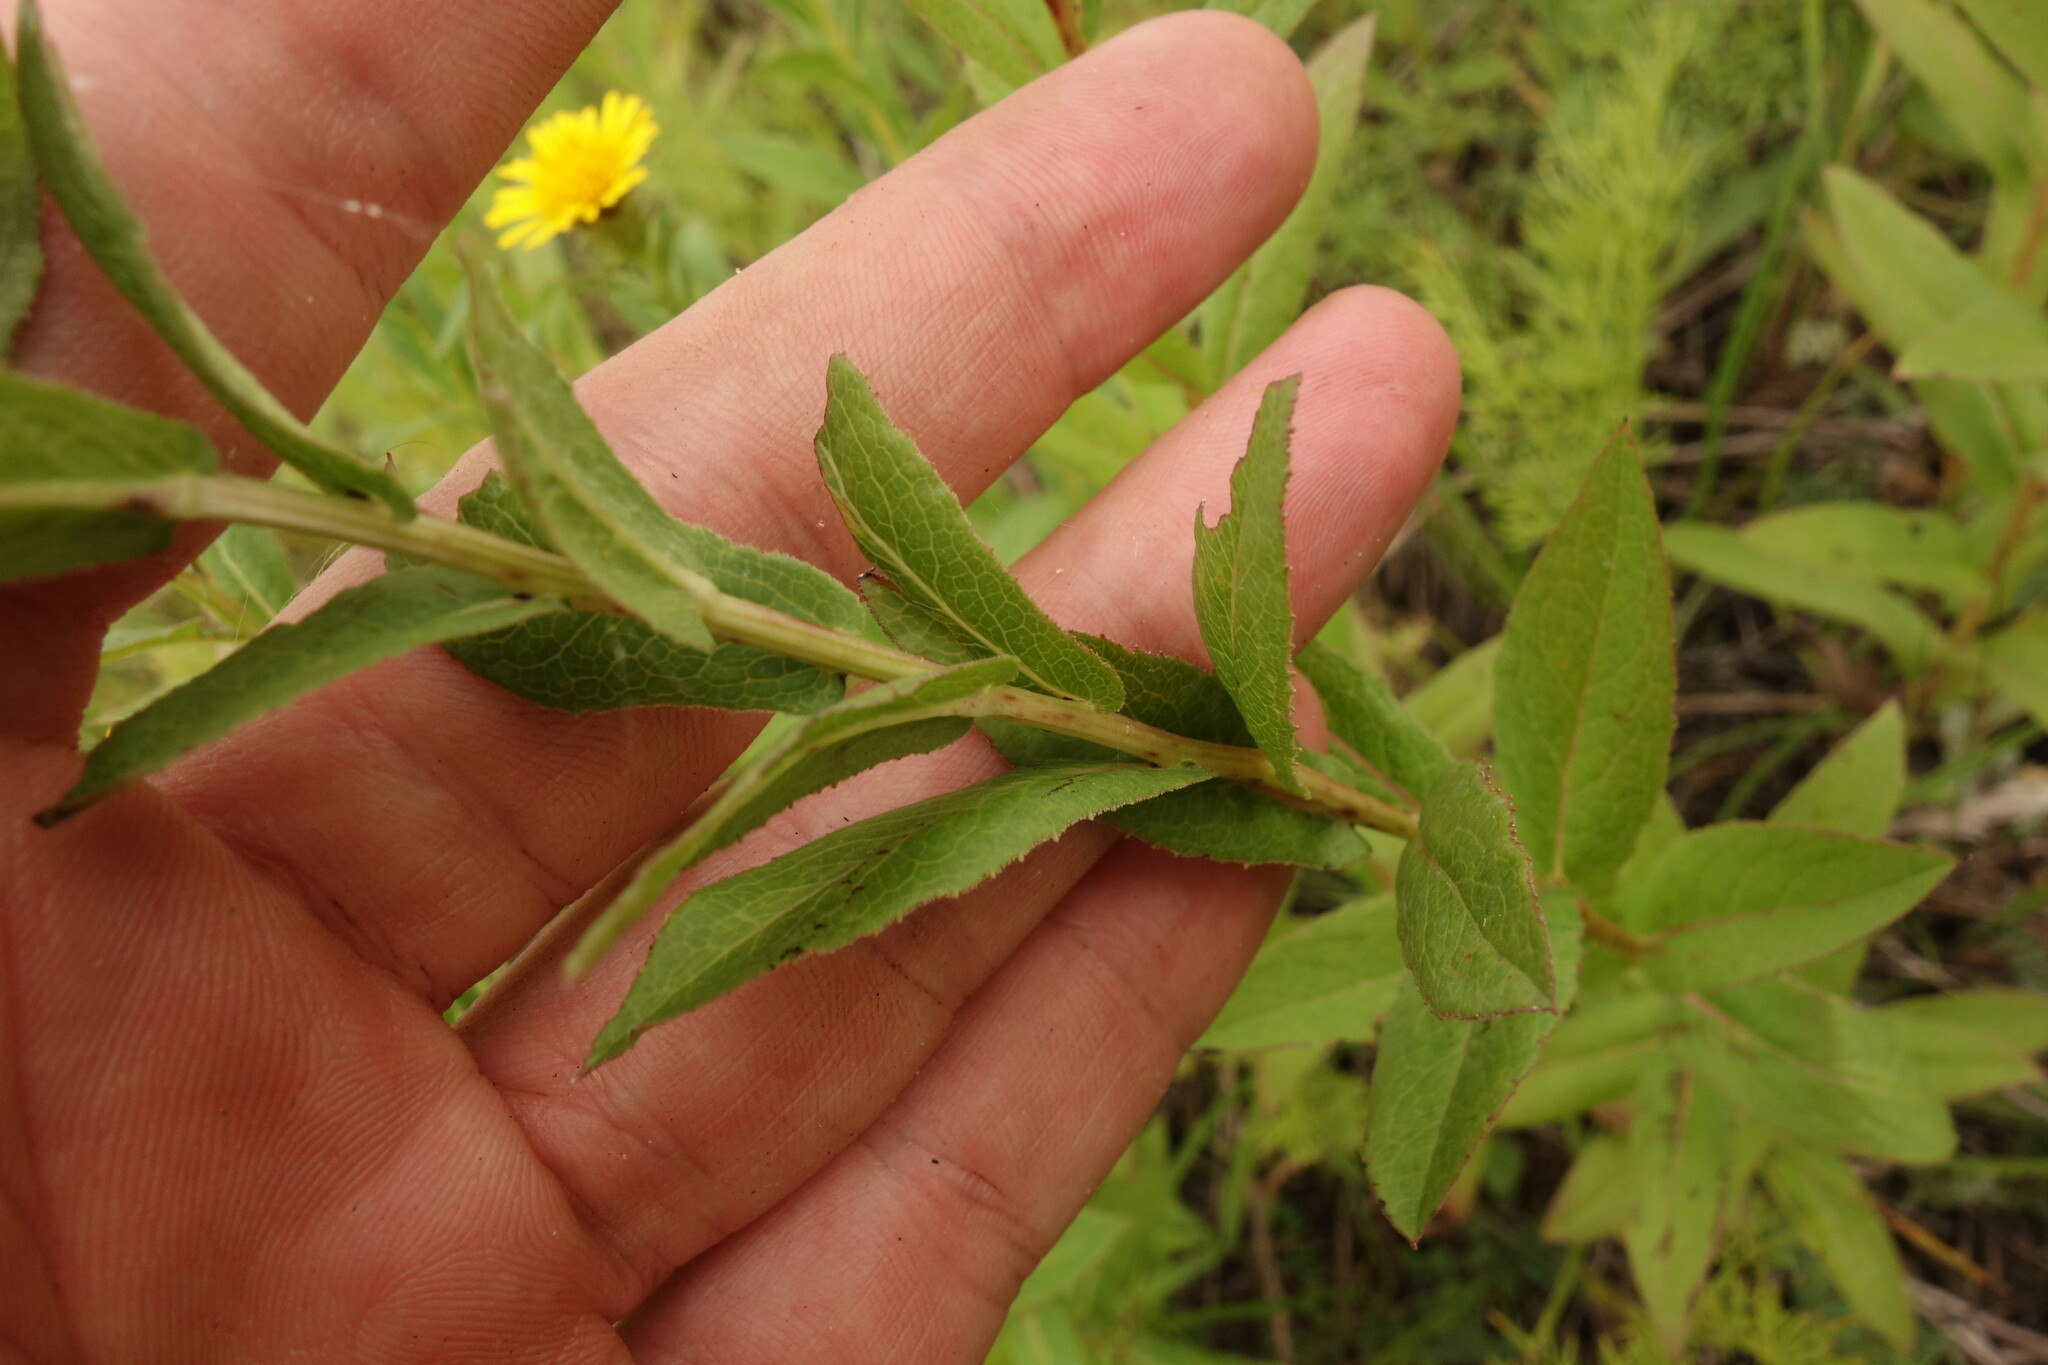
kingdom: Plantae
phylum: Tracheophyta
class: Magnoliopsida
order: Asterales
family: Asteraceae
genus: Pentanema
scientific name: Pentanema salicinum
